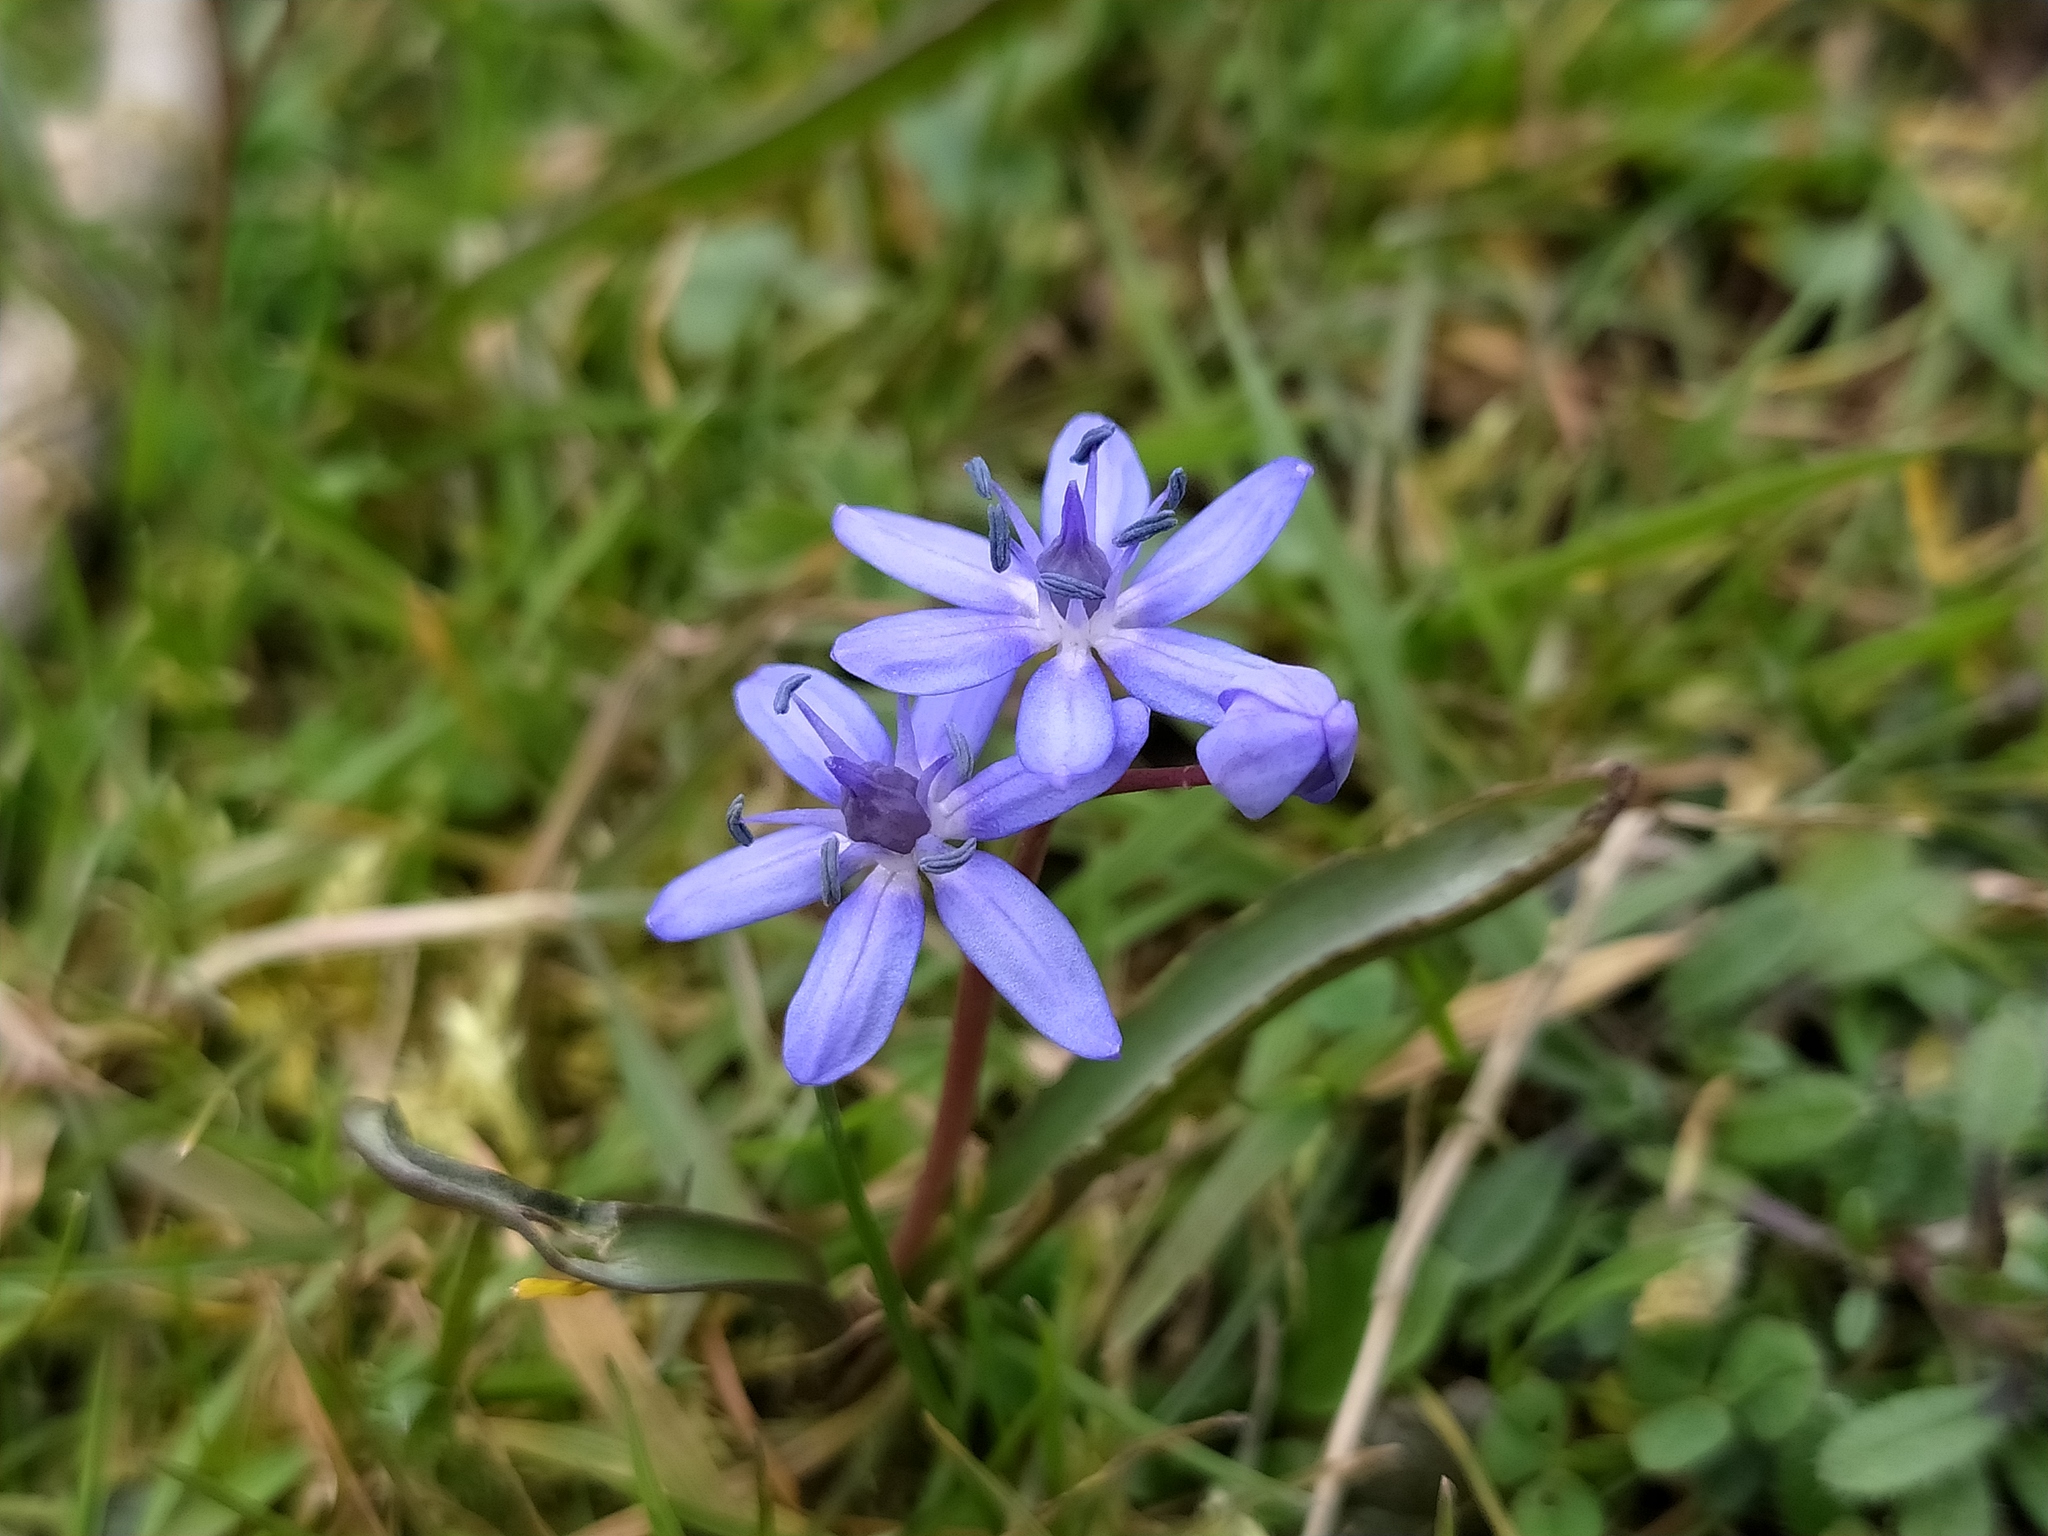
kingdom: Plantae
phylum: Tracheophyta
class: Liliopsida
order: Asparagales
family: Asparagaceae
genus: Scilla
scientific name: Scilla bifolia
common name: Alpine squill
